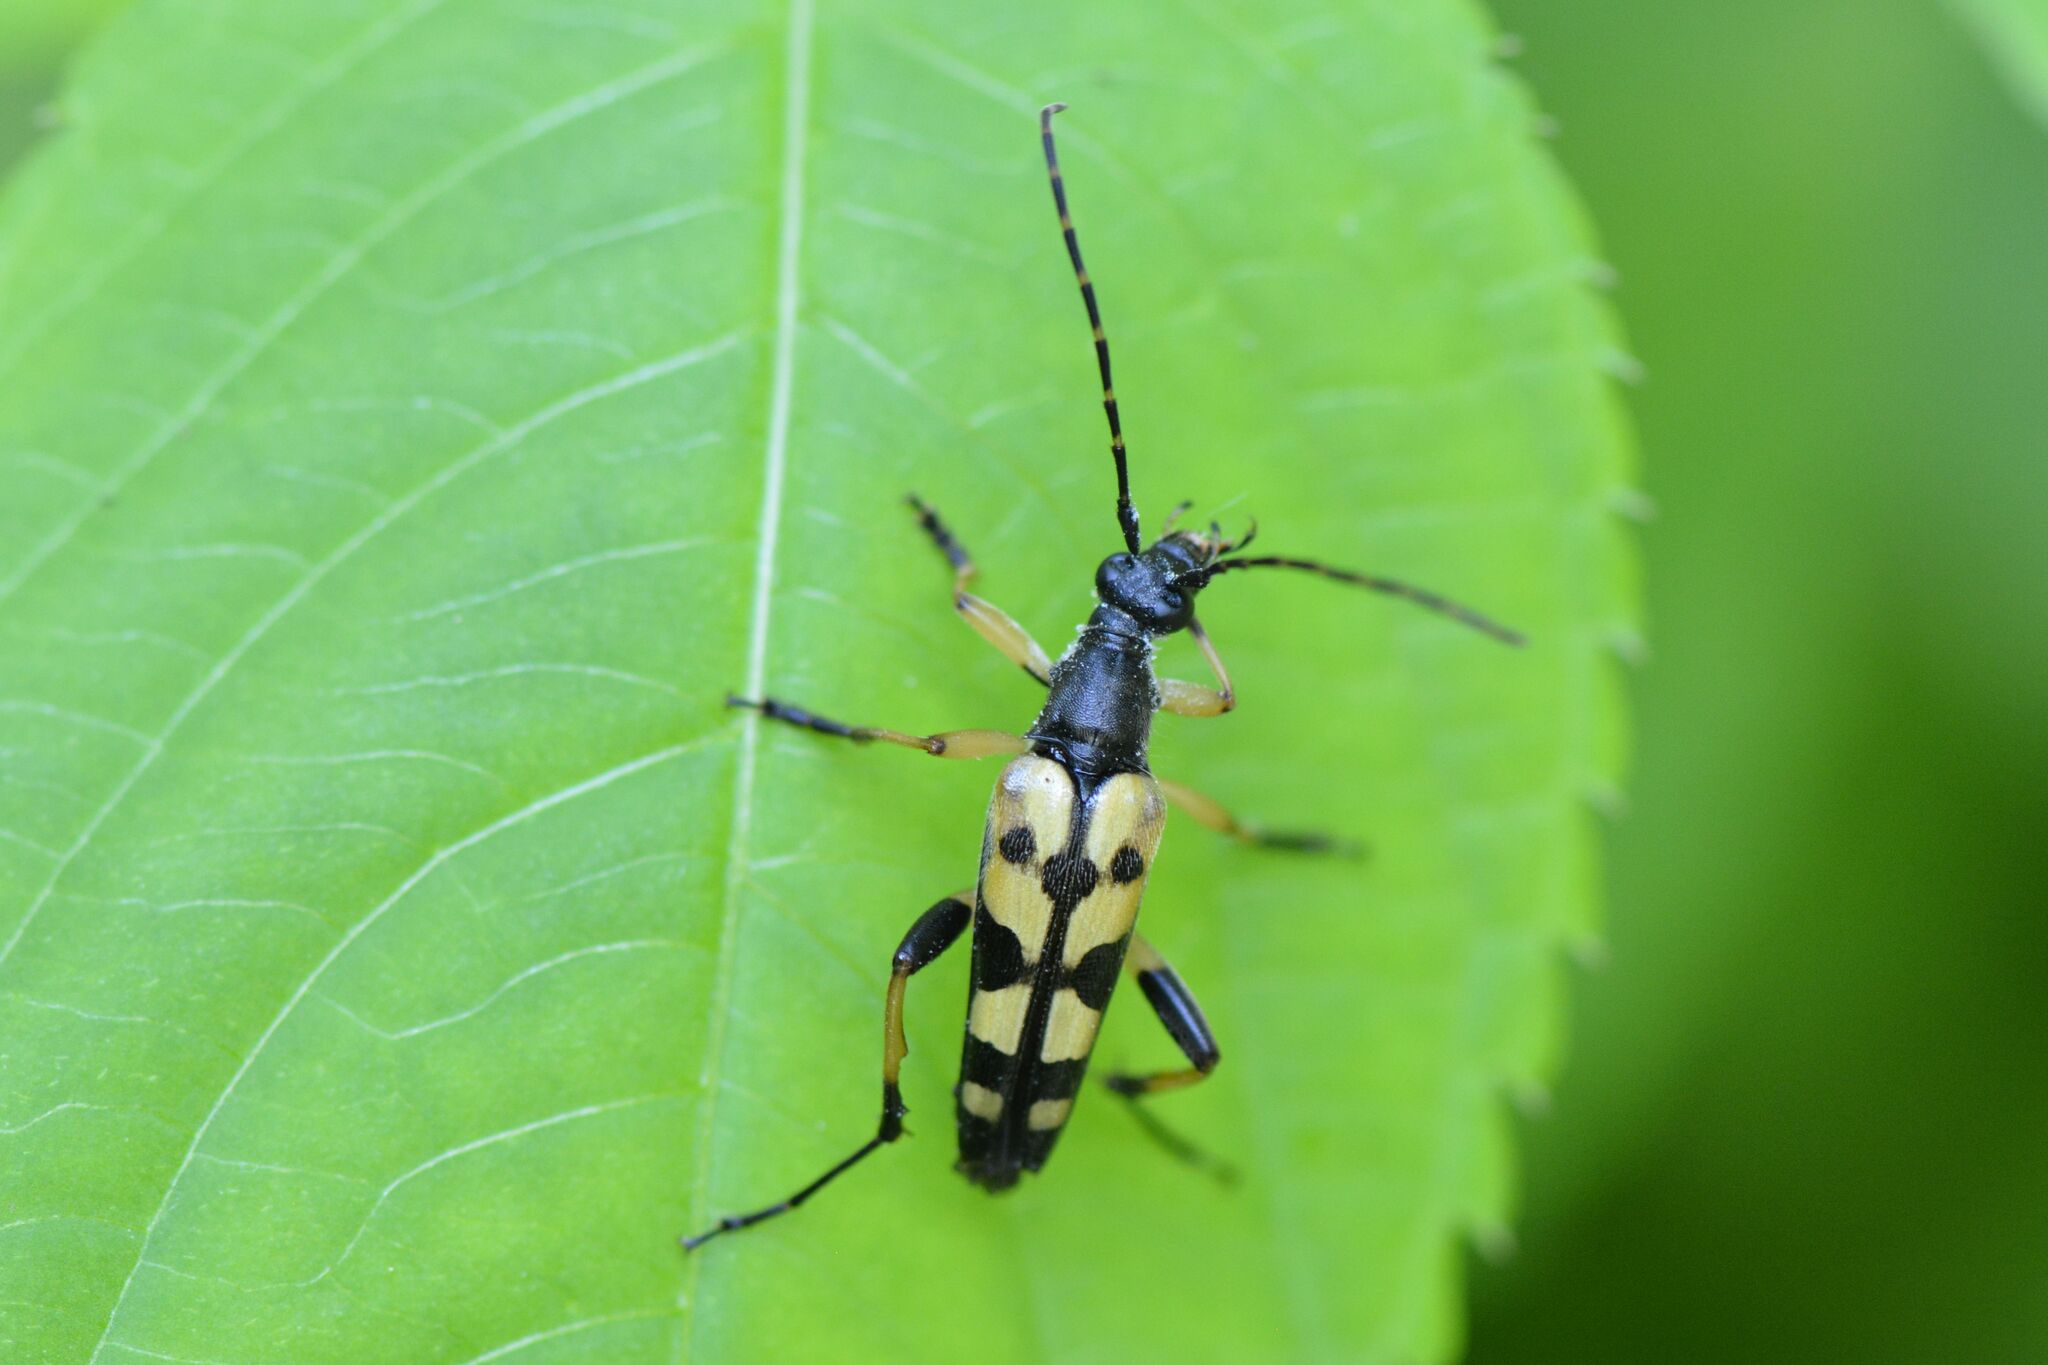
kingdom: Animalia
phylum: Arthropoda
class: Insecta
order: Coleoptera
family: Cerambycidae
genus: Rutpela
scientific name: Rutpela maculata
